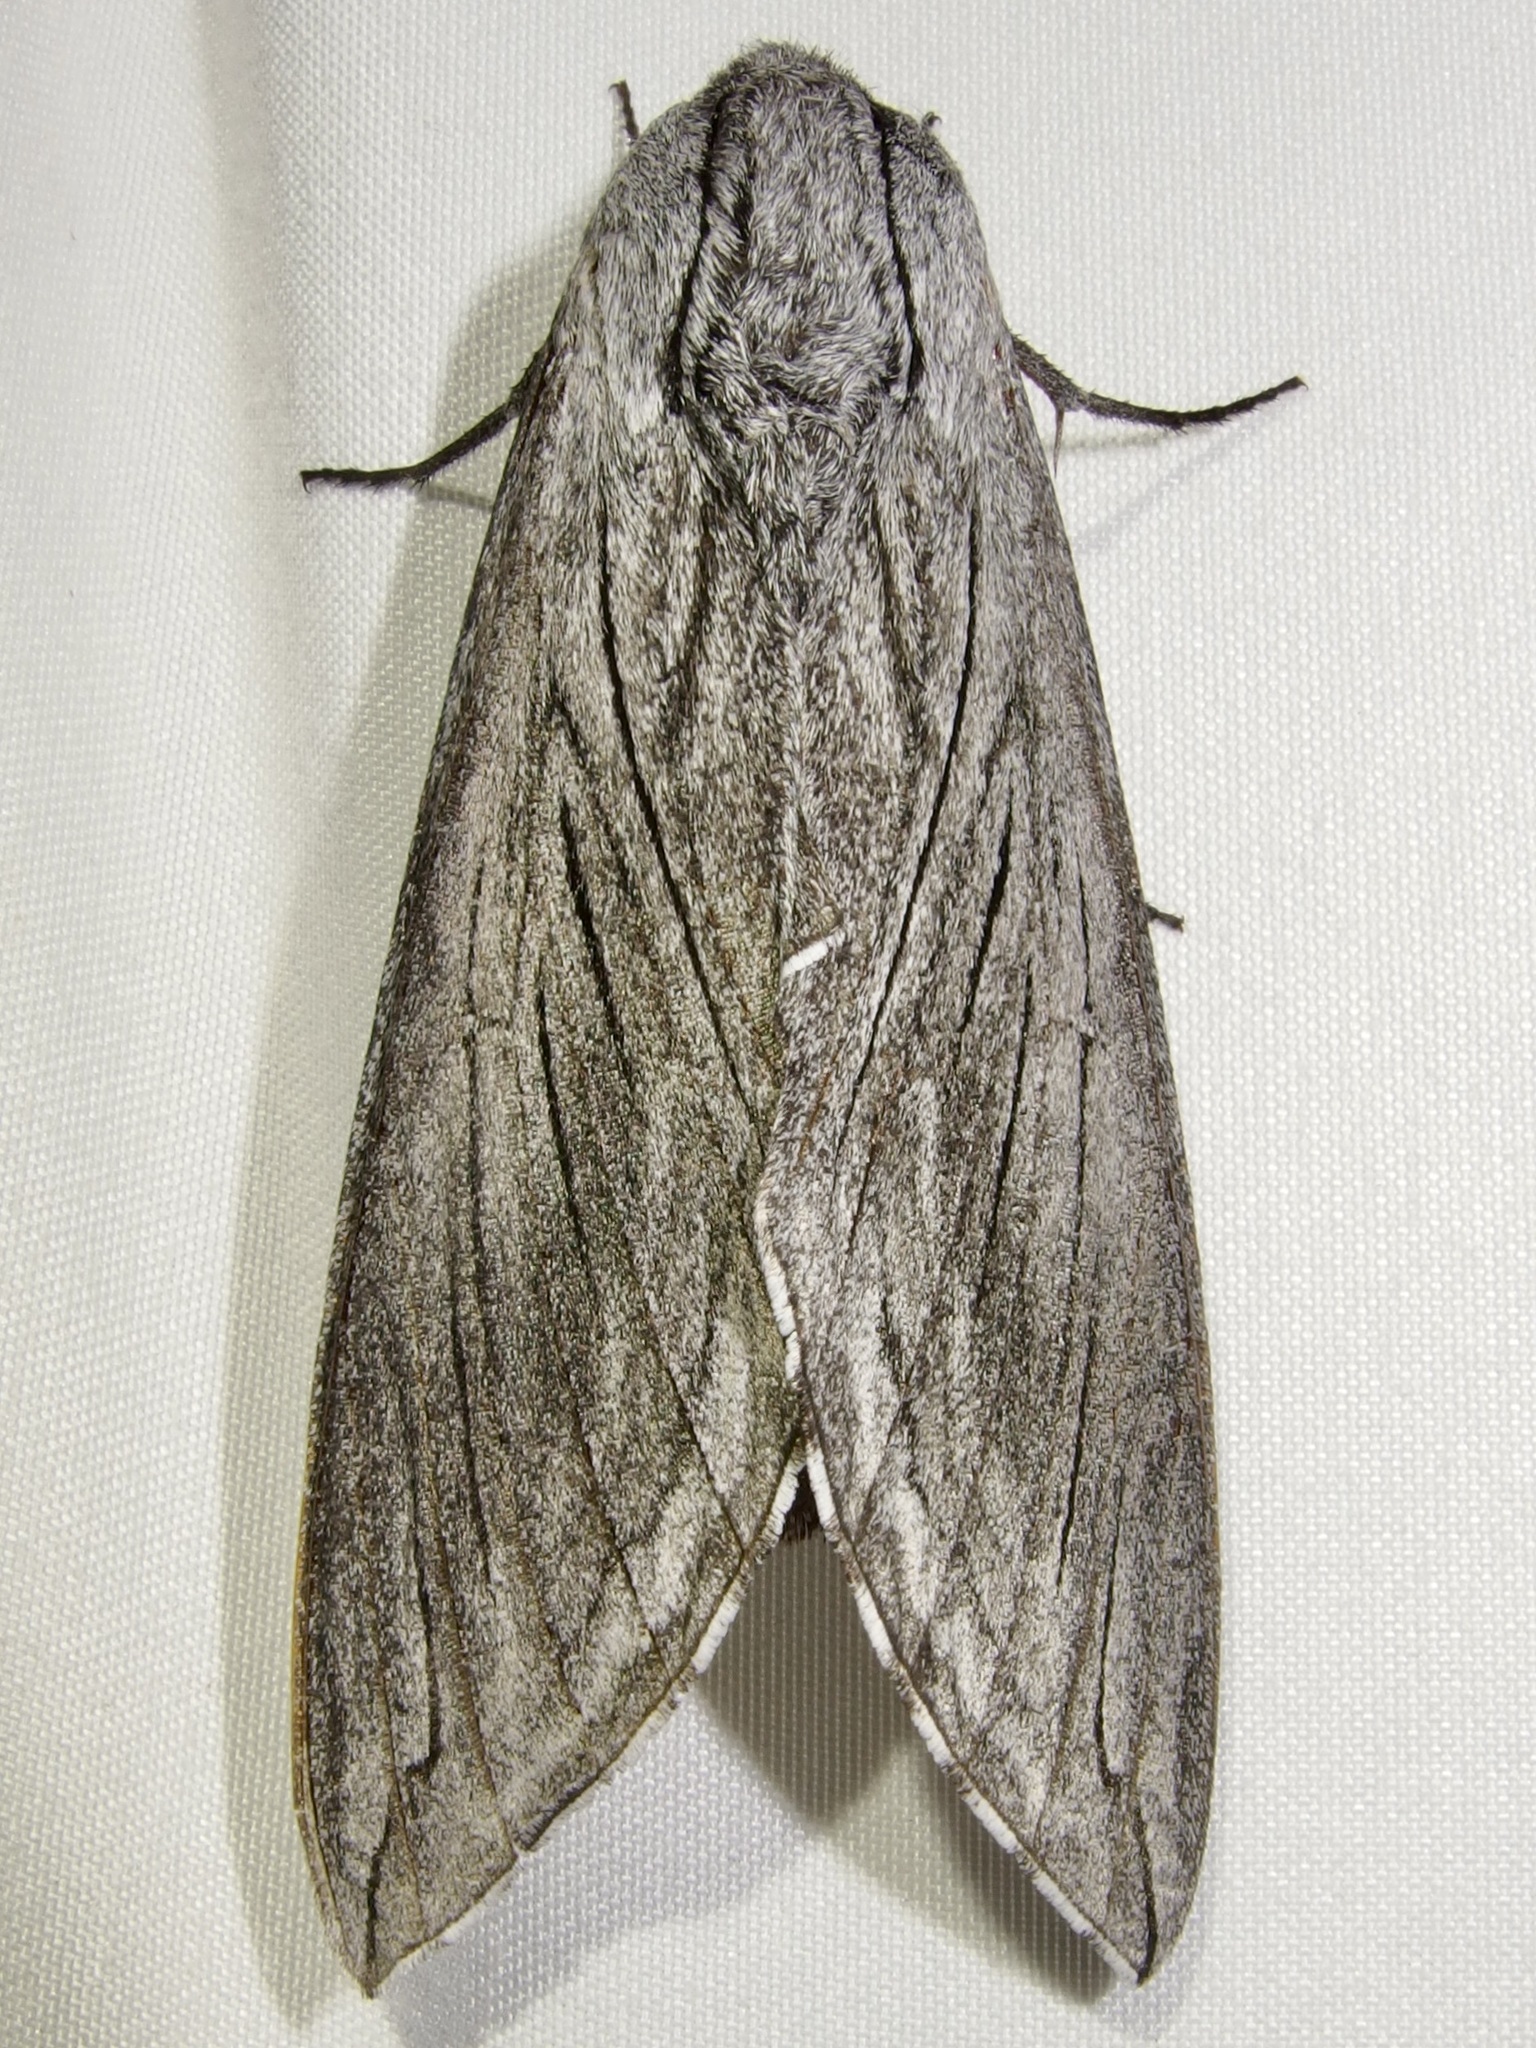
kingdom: Animalia
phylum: Arthropoda
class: Insecta
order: Lepidoptera
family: Sphingidae
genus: Sphinx
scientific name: Sphinx asellus
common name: Asella sphinx
